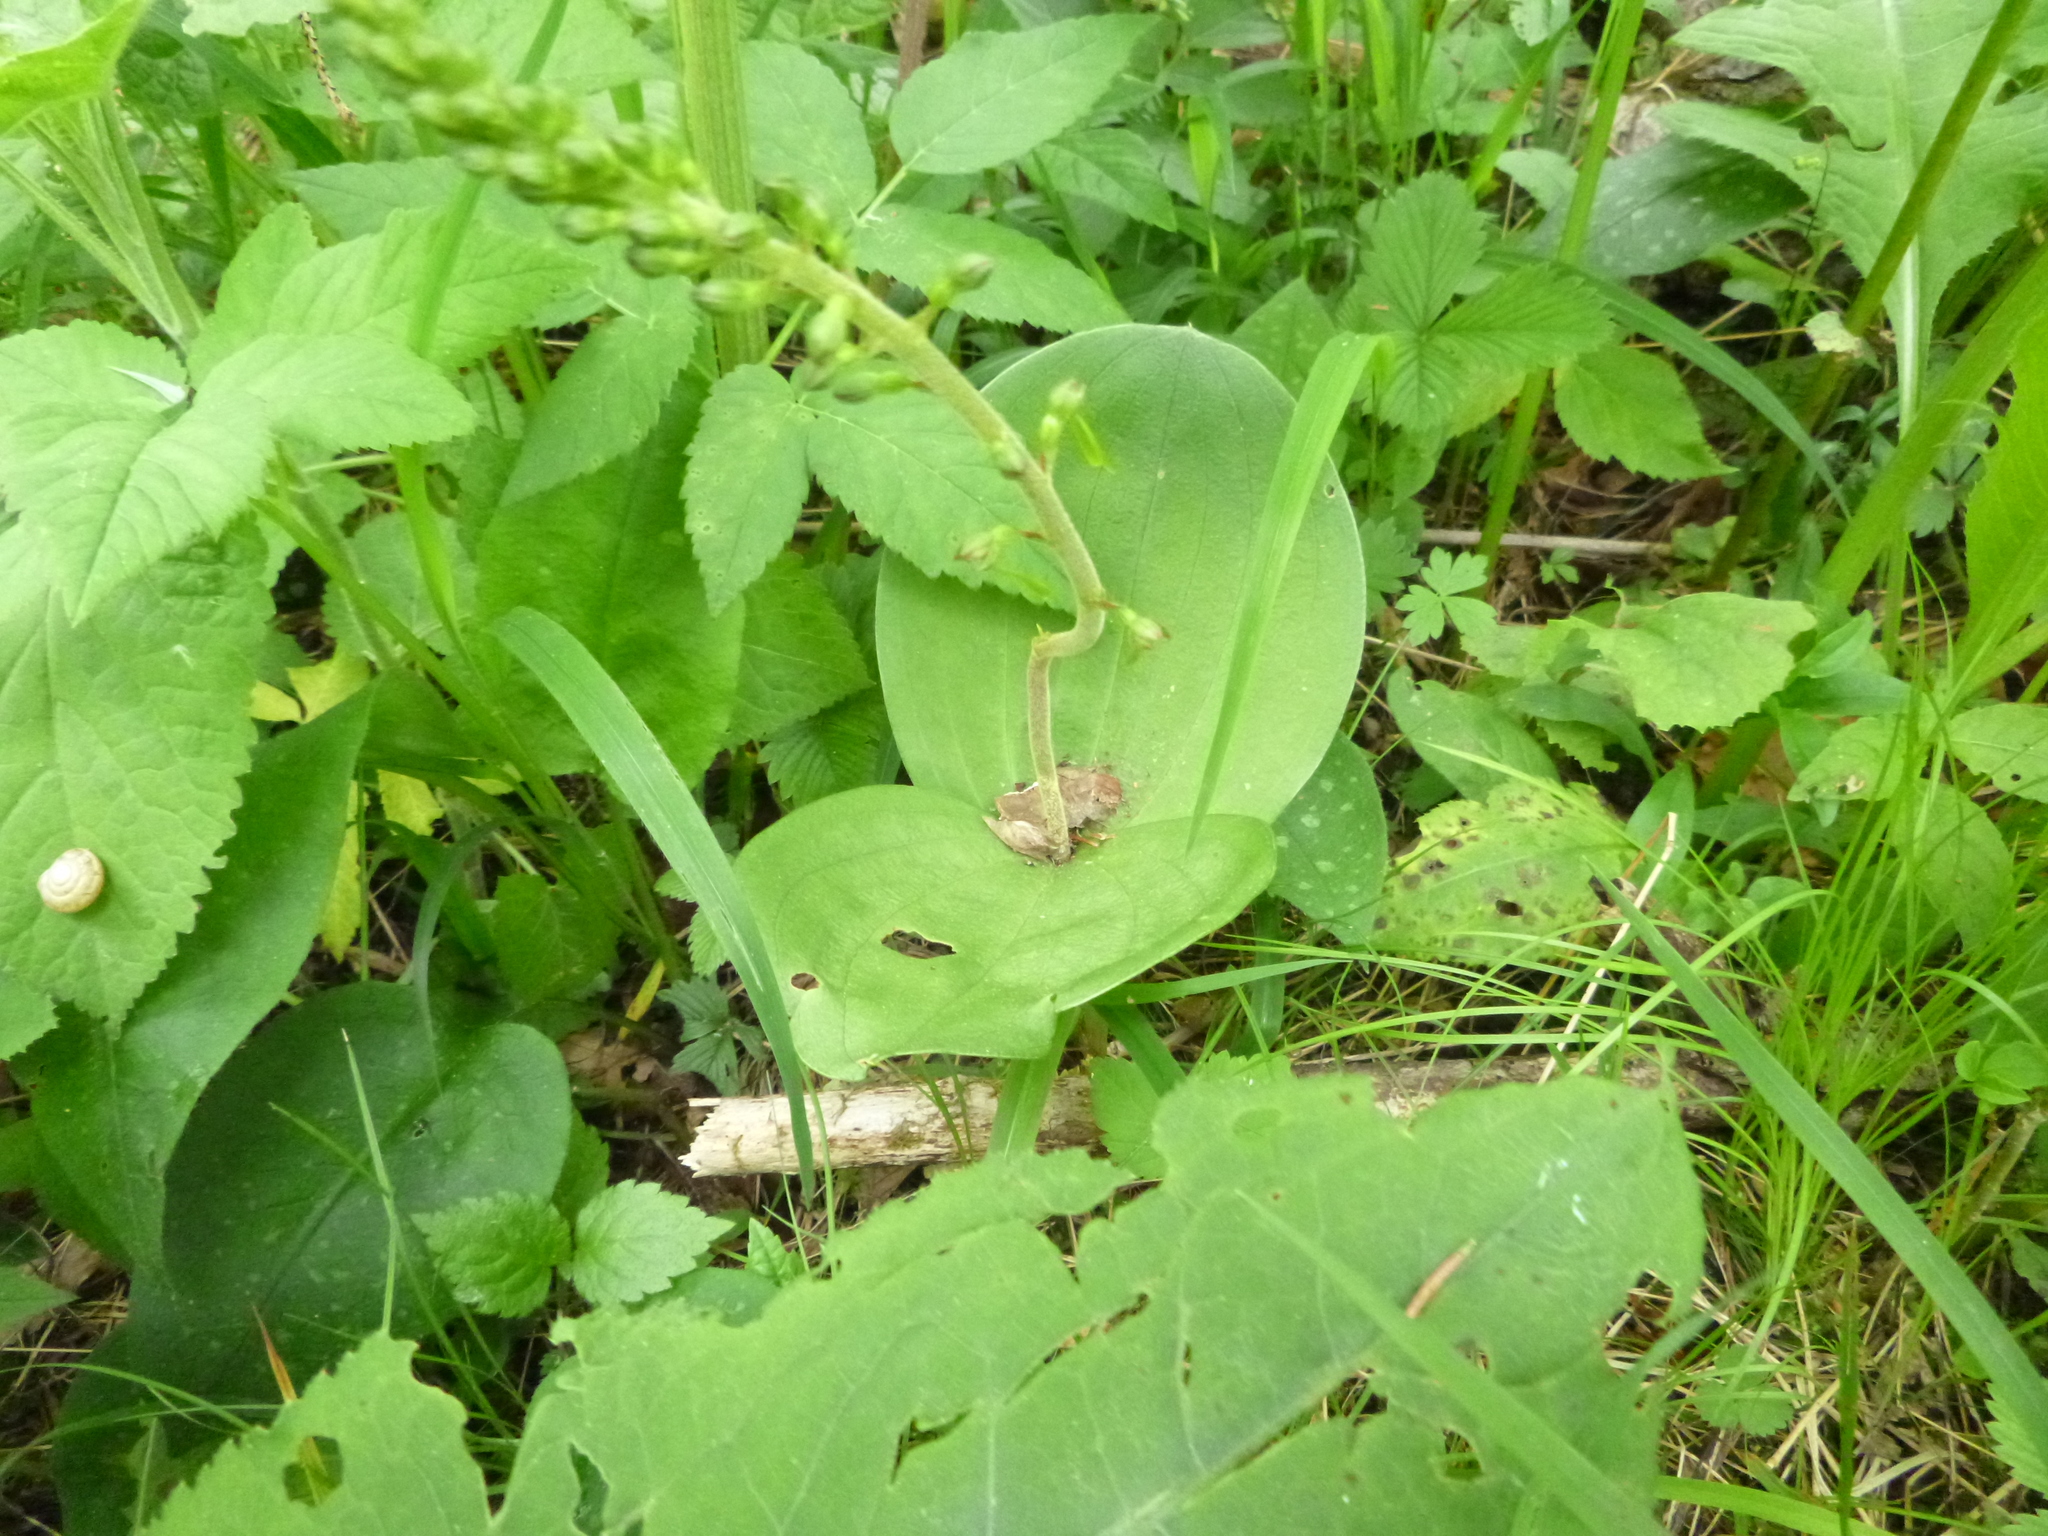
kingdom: Plantae
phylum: Tracheophyta
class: Liliopsida
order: Asparagales
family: Orchidaceae
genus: Neottia
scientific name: Neottia ovata
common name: Common twayblade
